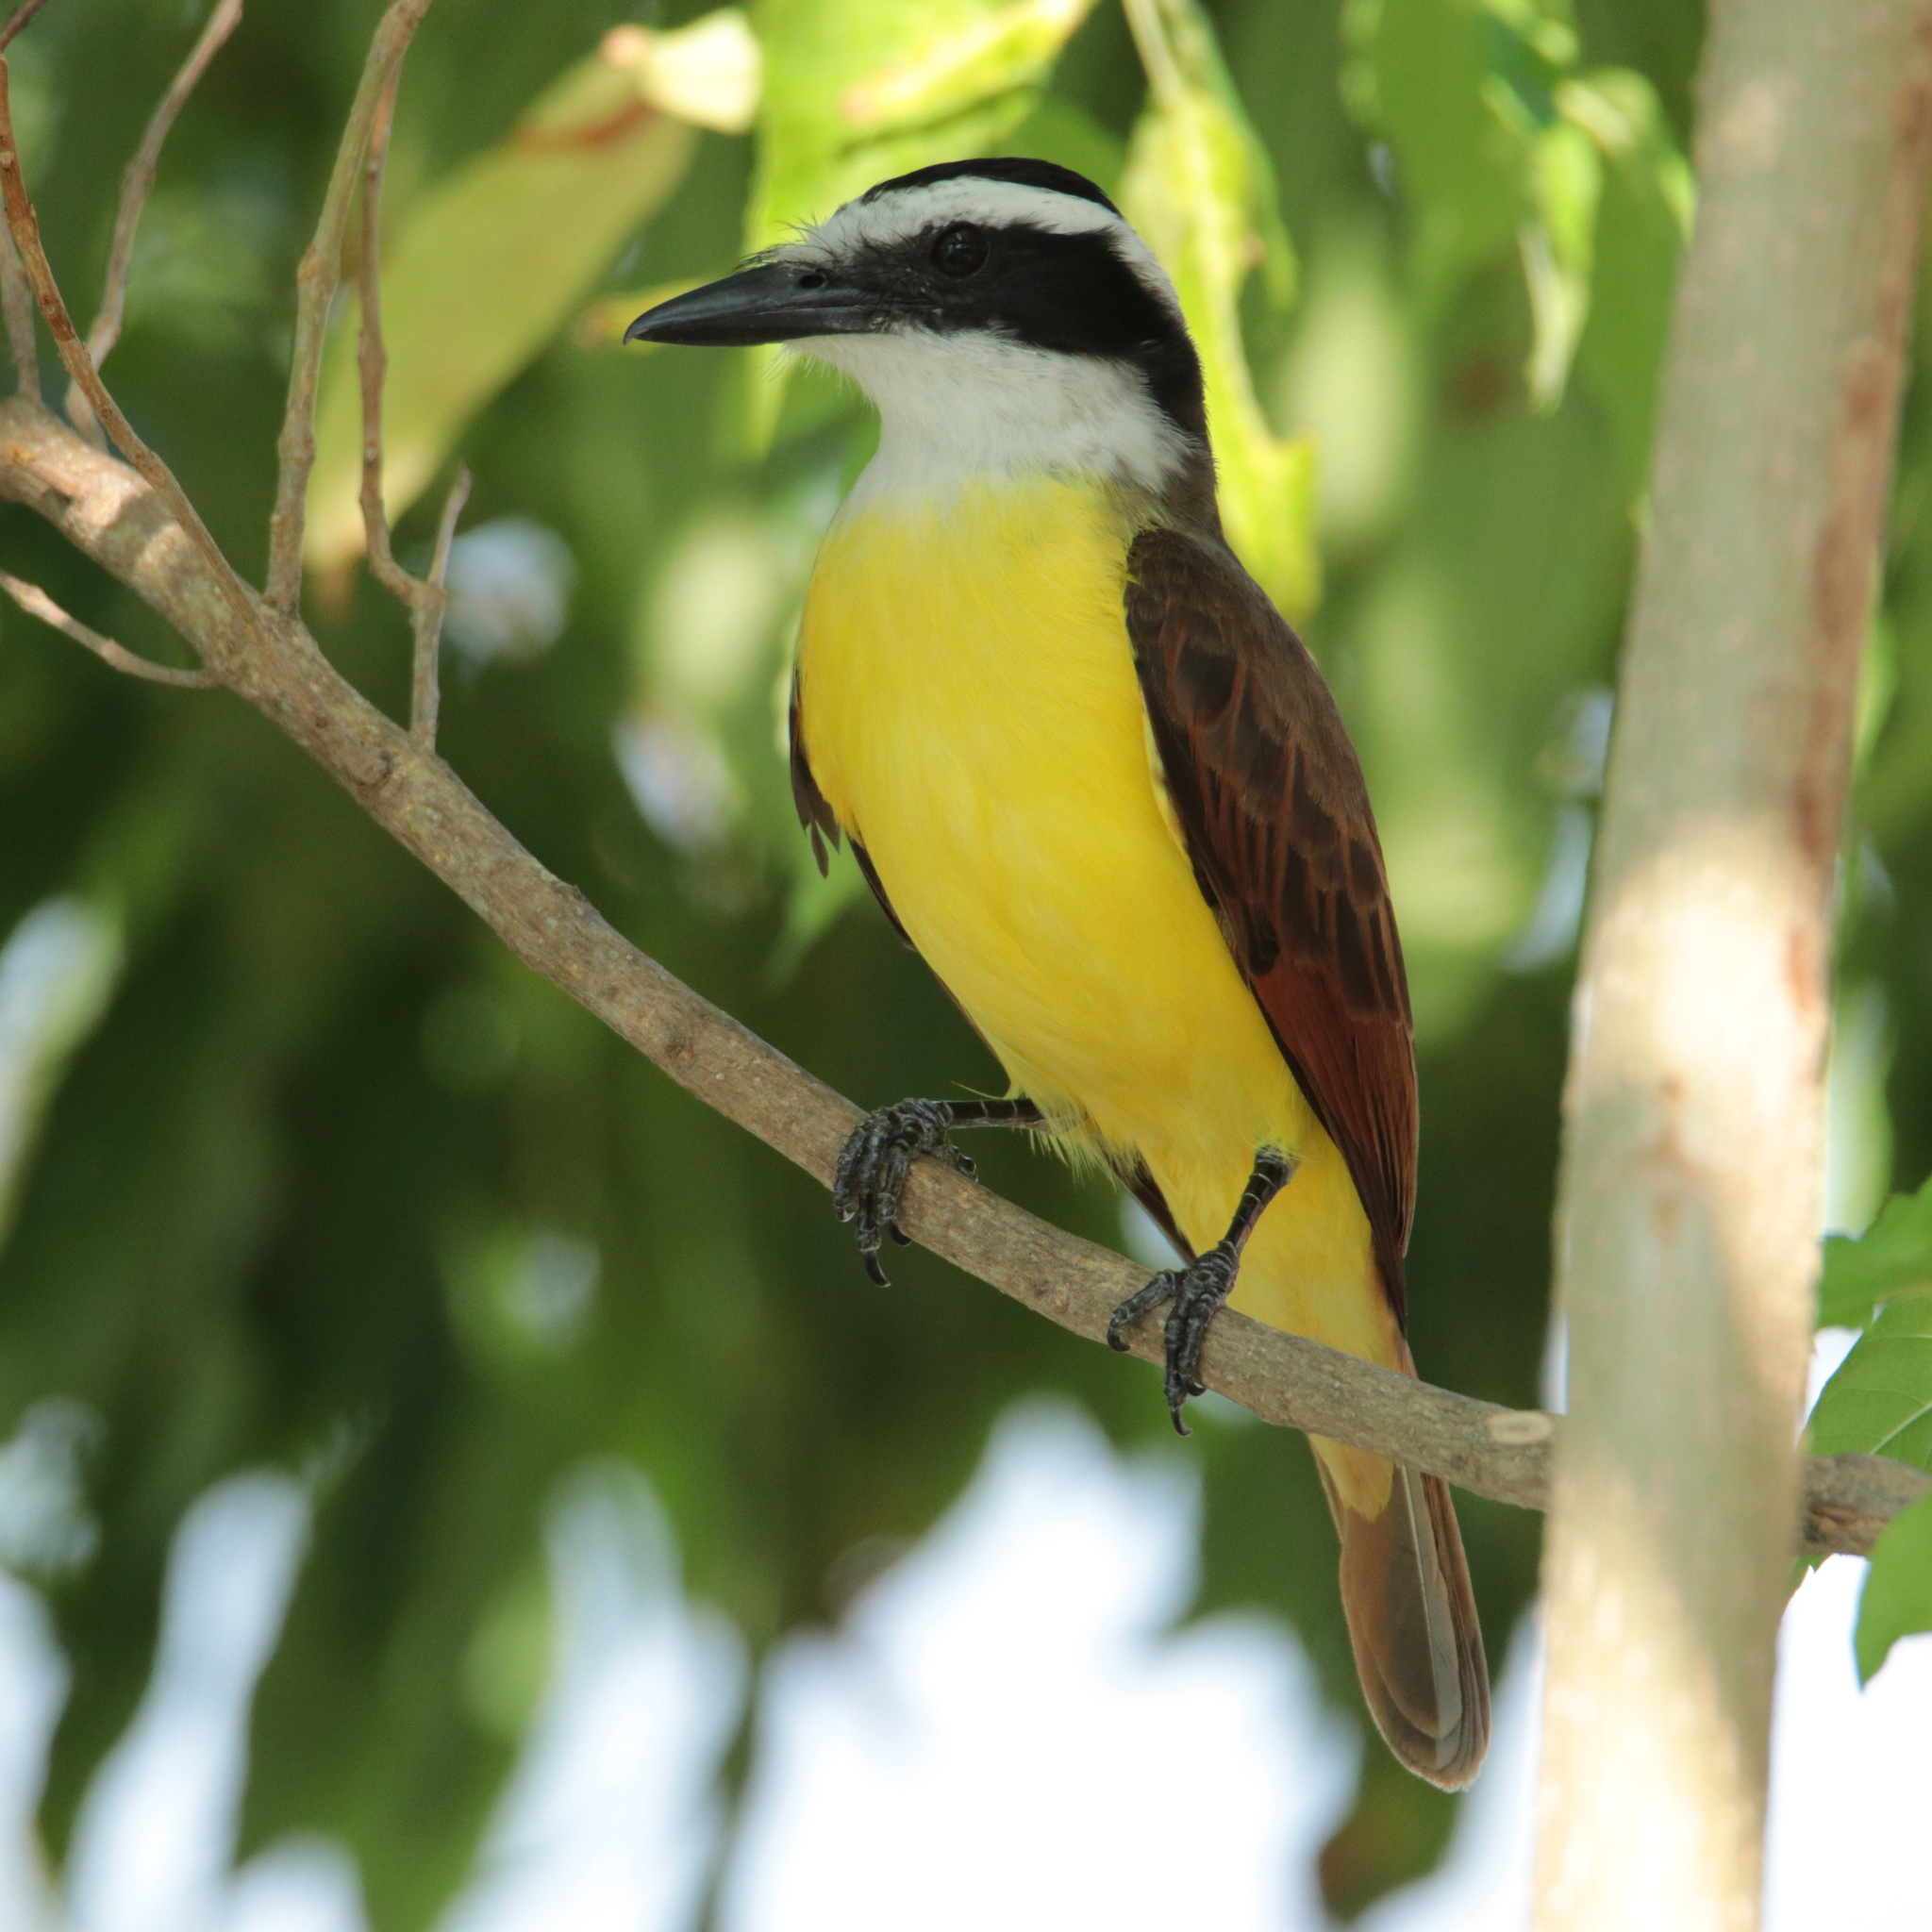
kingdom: Animalia
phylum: Chordata
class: Aves
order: Passeriformes
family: Tyrannidae
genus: Pitangus
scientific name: Pitangus sulphuratus
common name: Great kiskadee
